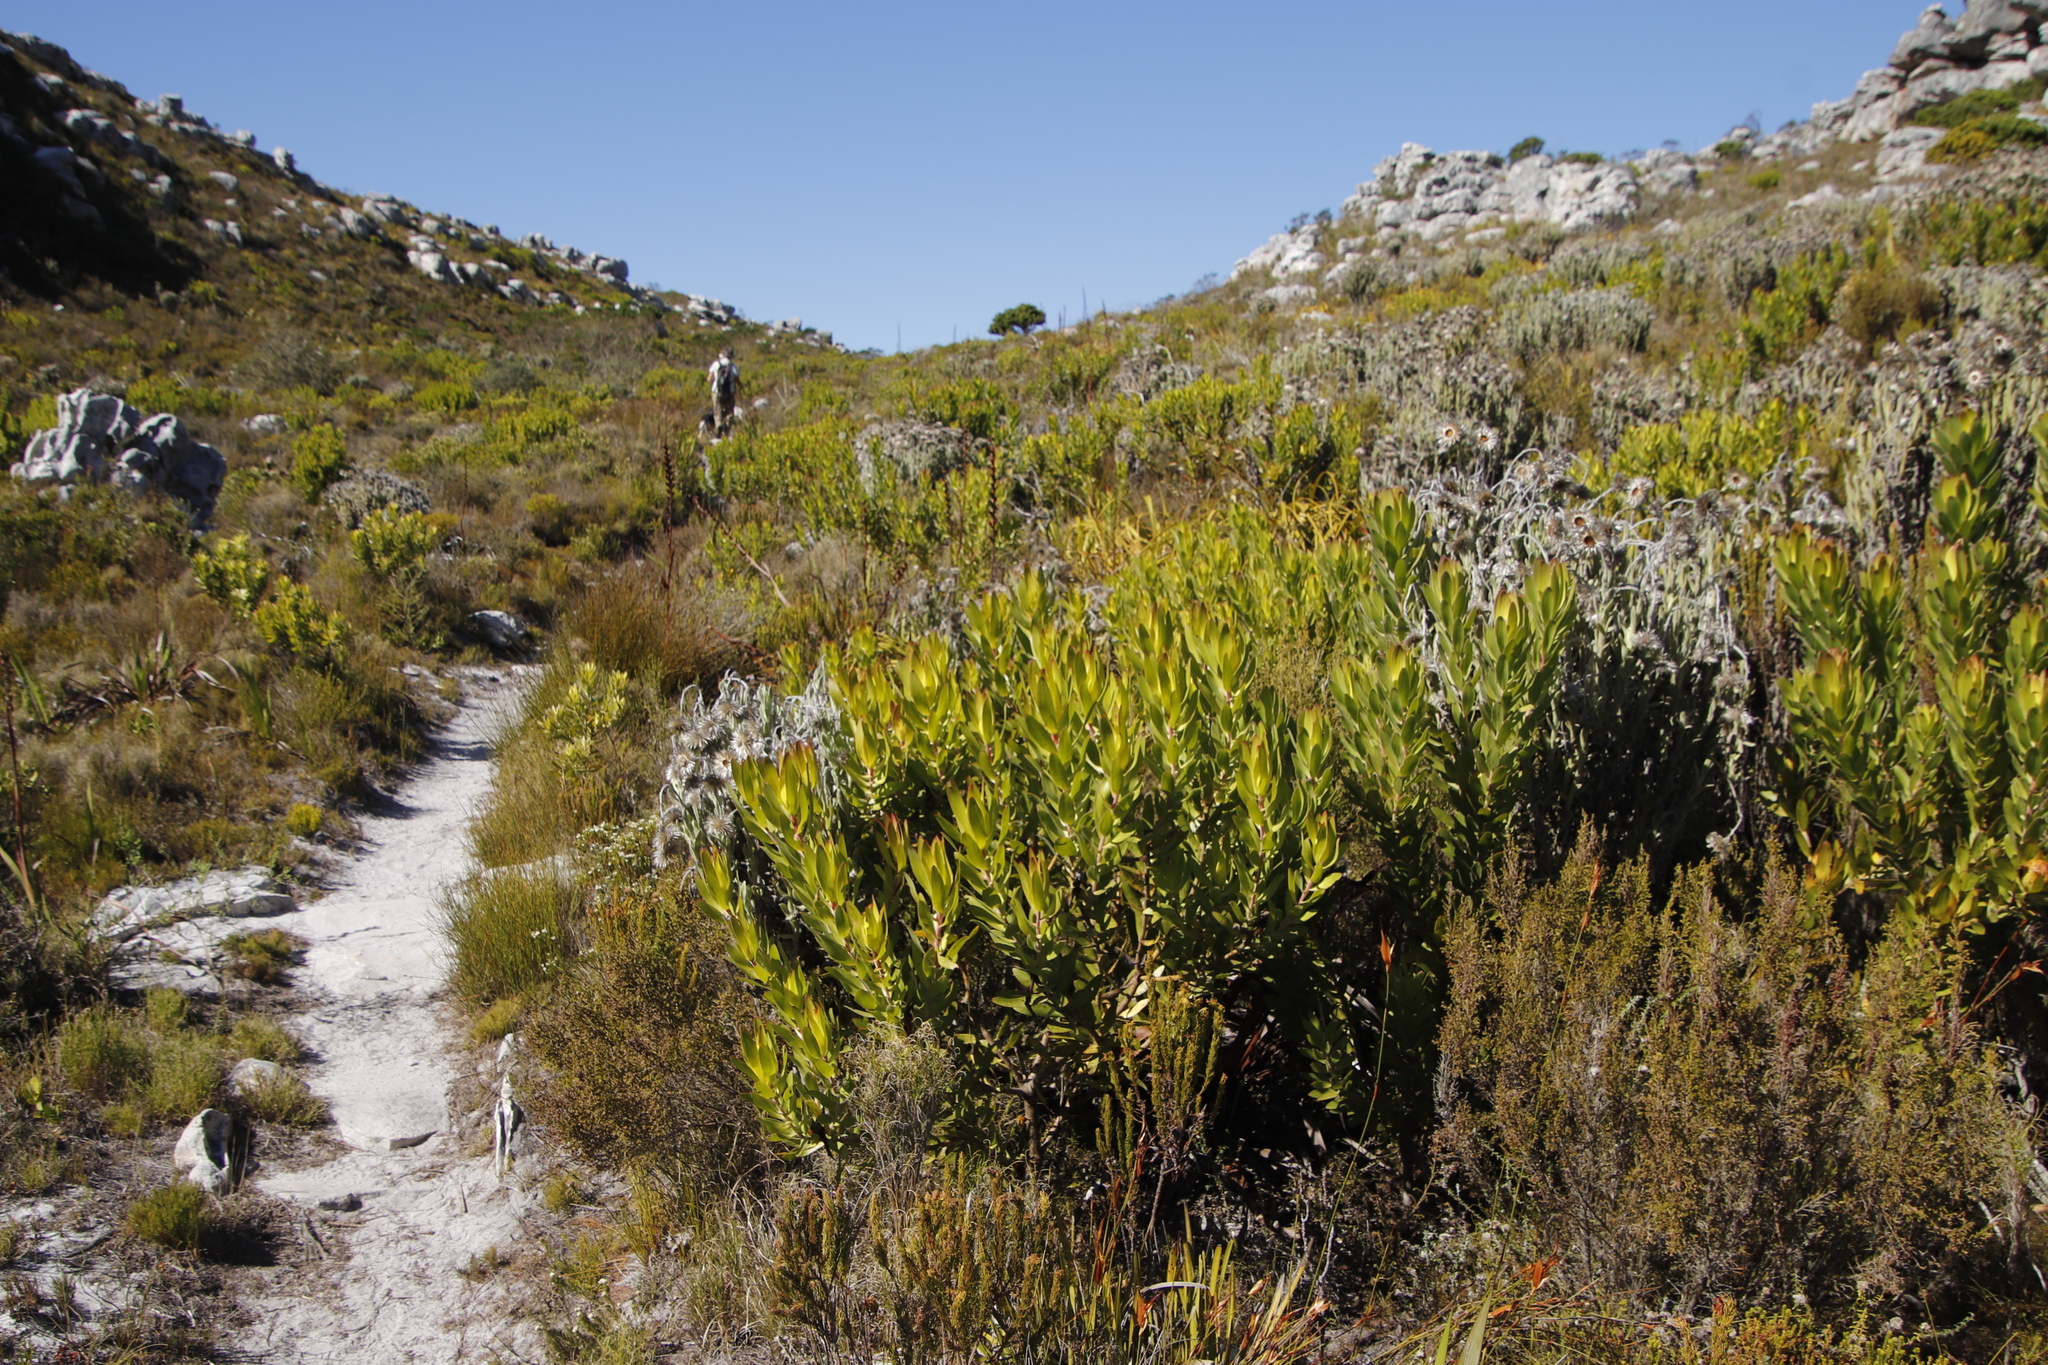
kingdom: Plantae
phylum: Tracheophyta
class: Magnoliopsida
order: Proteales
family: Proteaceae
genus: Leucadendron
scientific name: Leucadendron laureolum
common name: Golden sunshinebush
